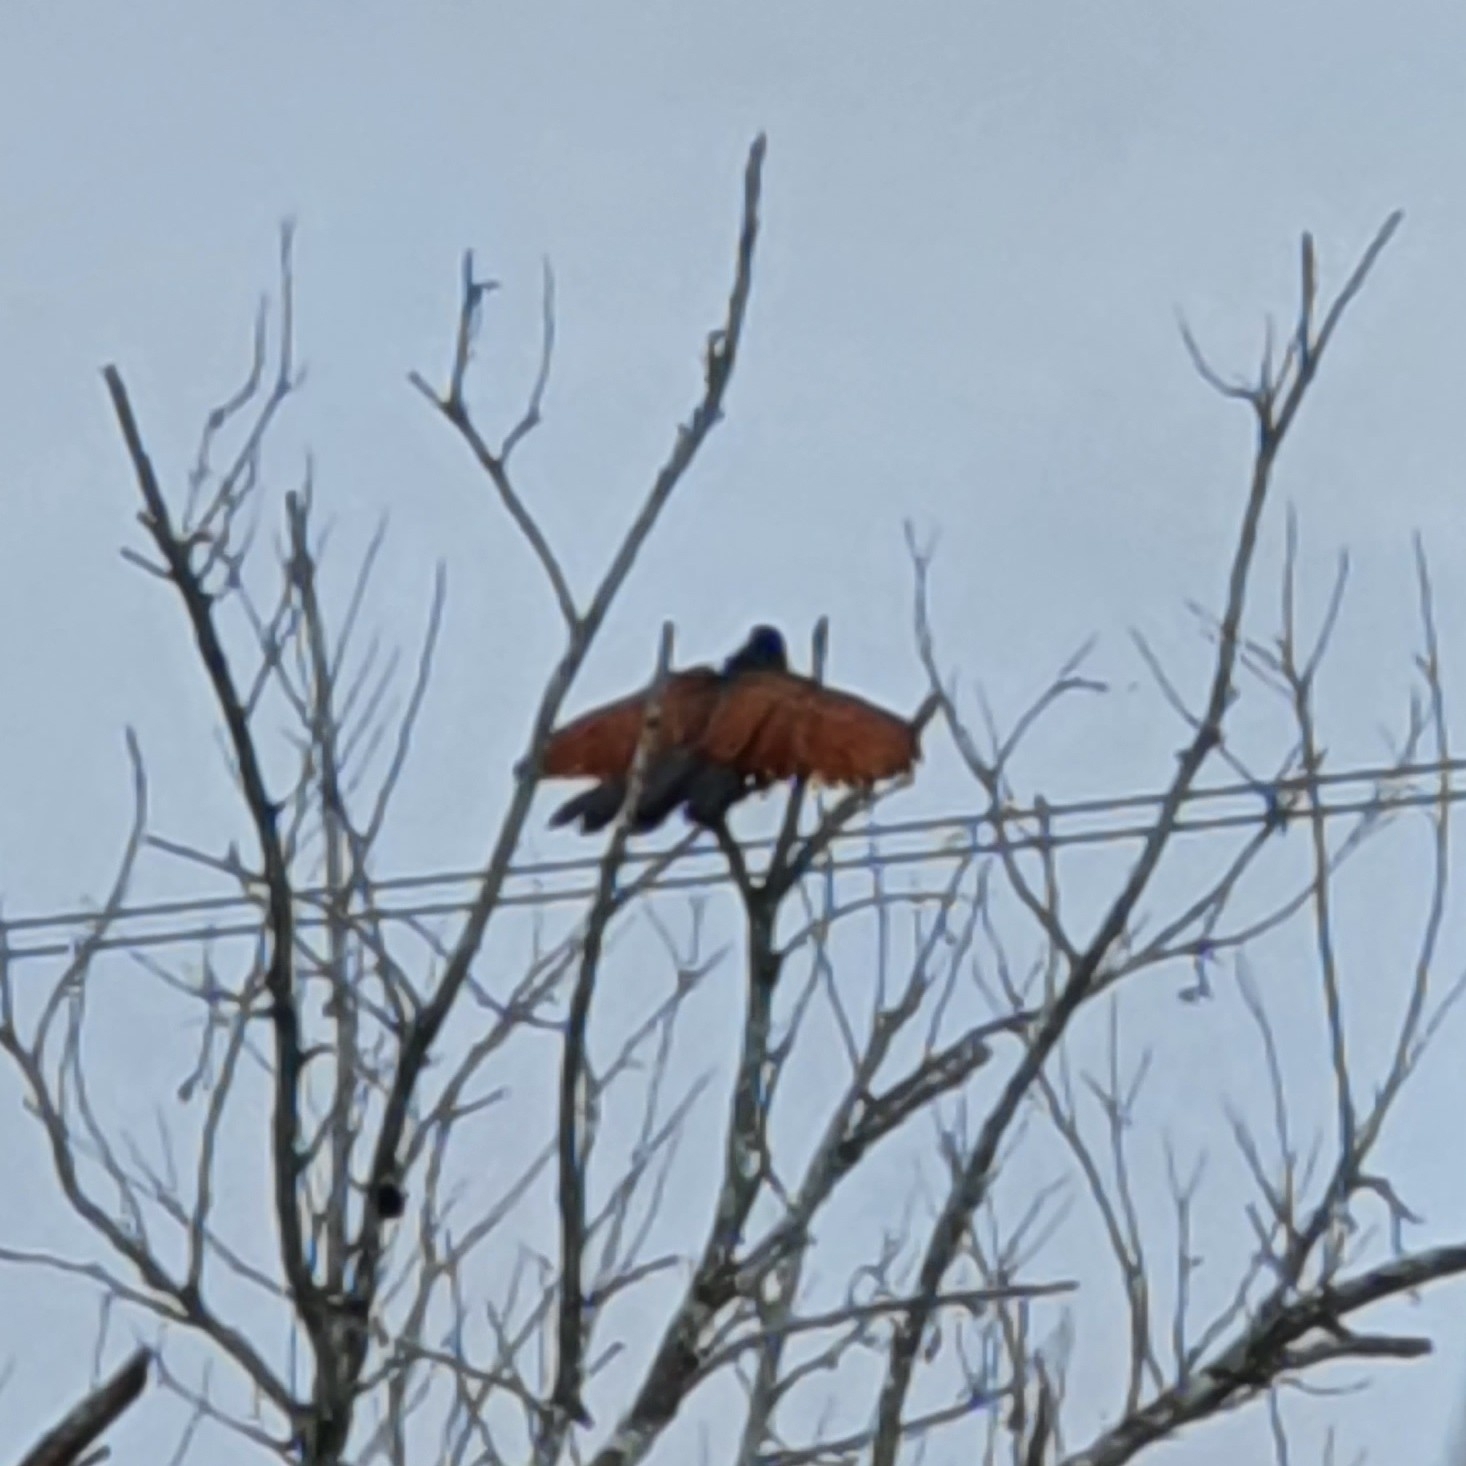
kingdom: Animalia
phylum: Chordata
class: Aves
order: Cuculiformes
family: Cuculidae
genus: Centropus
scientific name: Centropus sinensis
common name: Greater coucal
